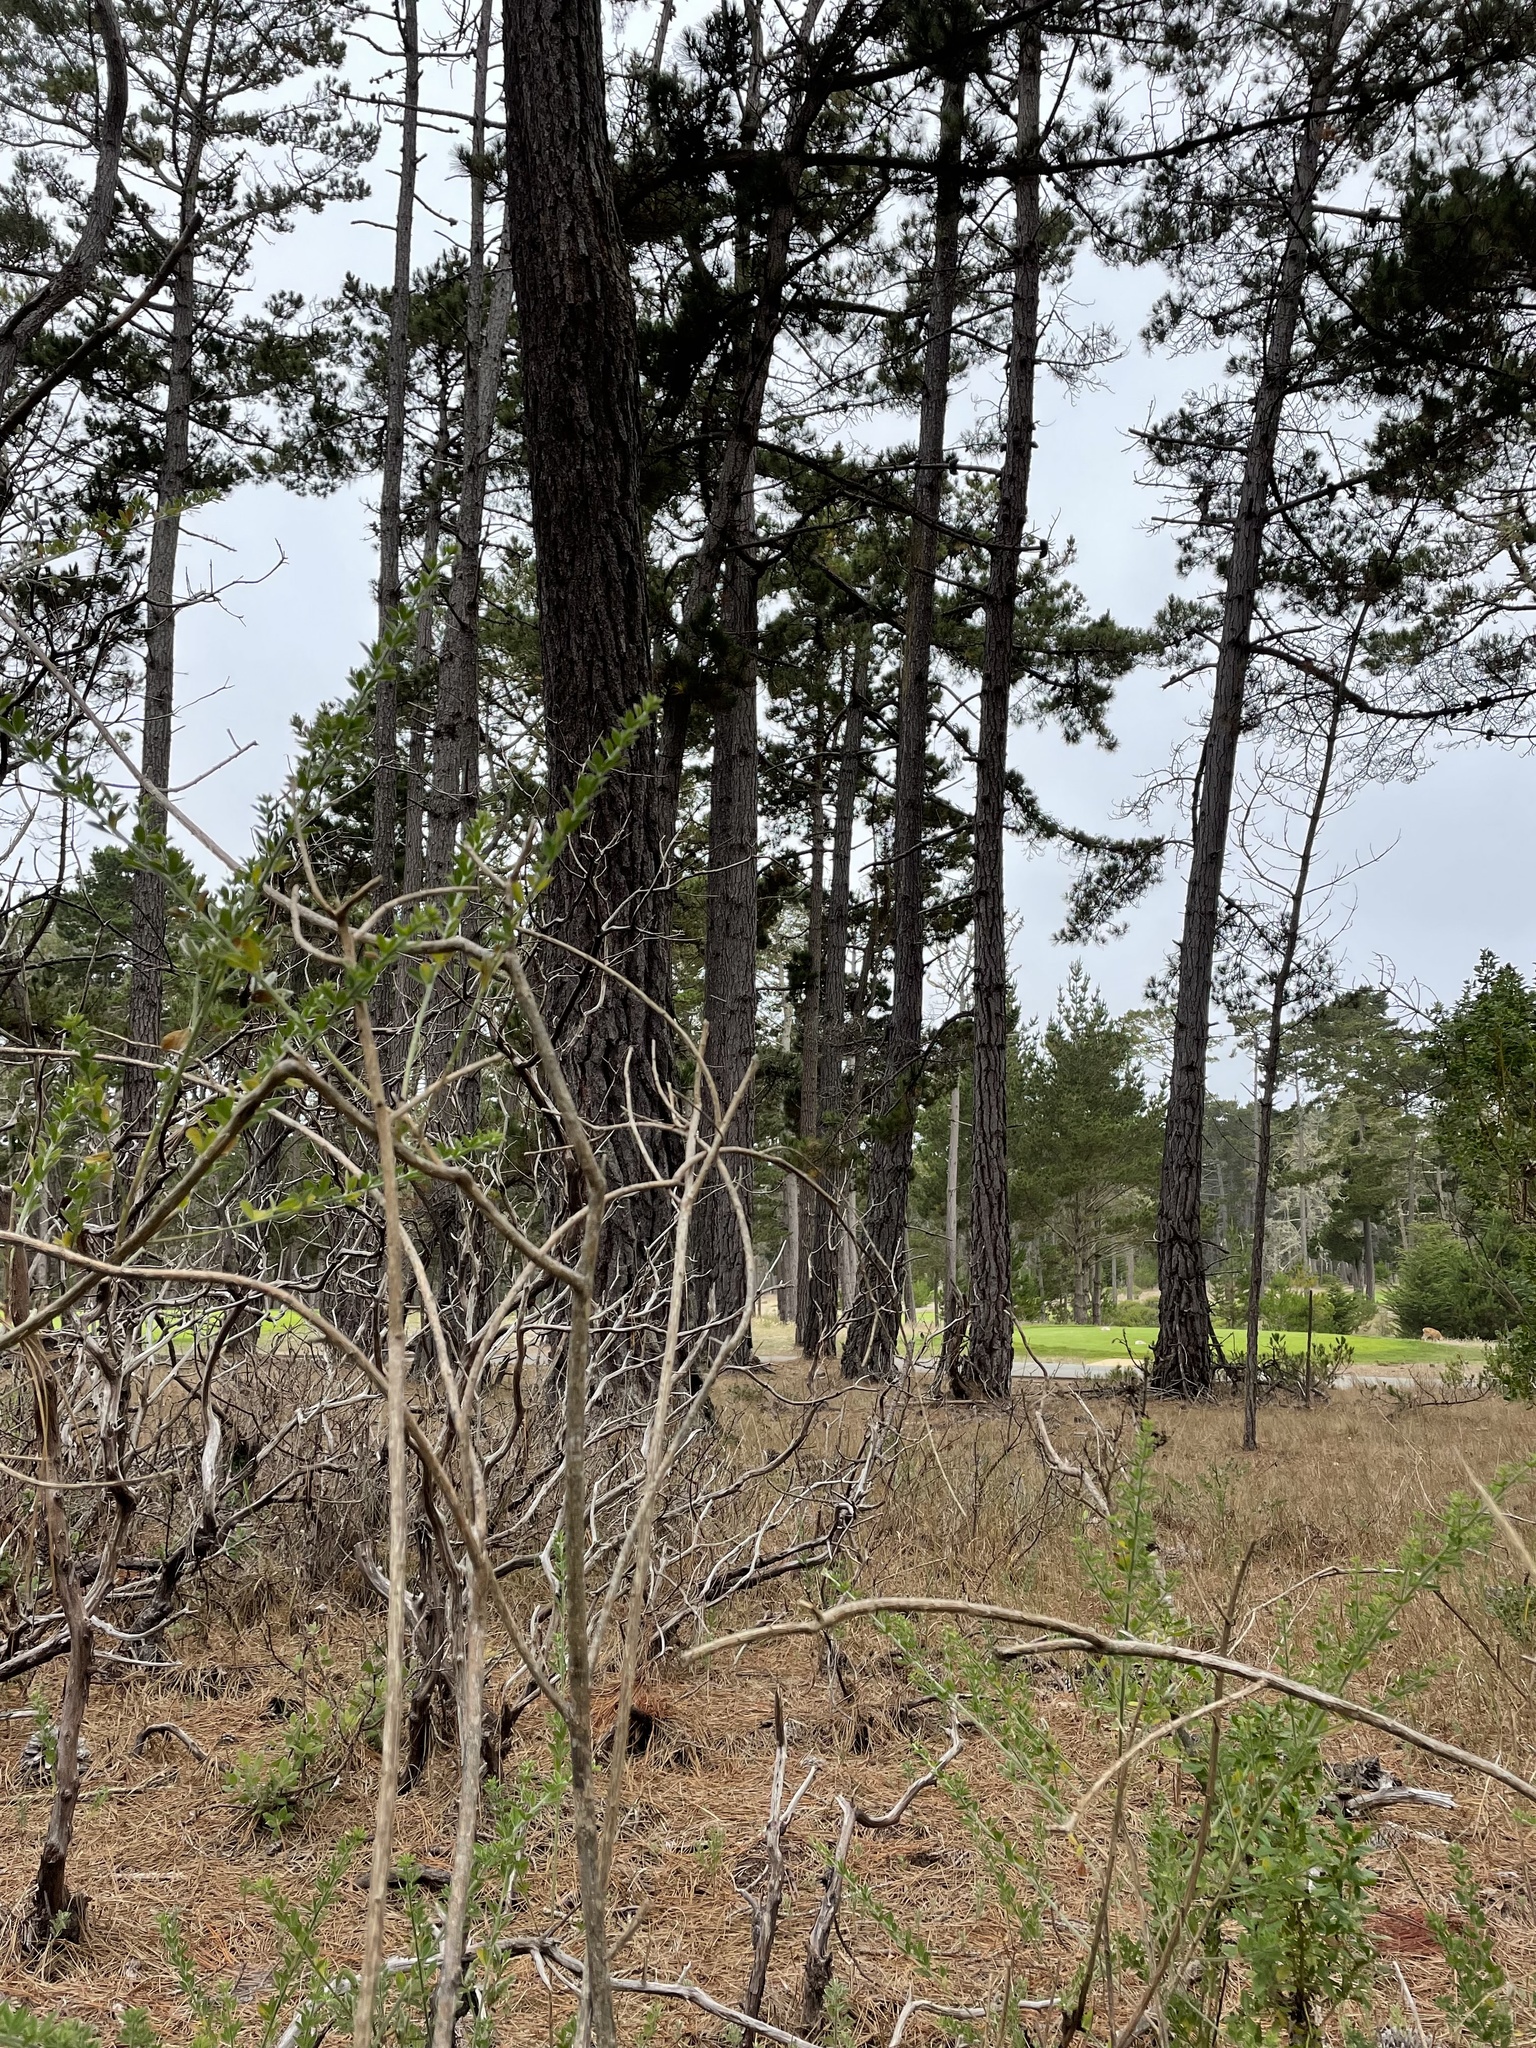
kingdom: Plantae
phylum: Tracheophyta
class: Liliopsida
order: Asparagales
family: Orchidaceae
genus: Platanthera
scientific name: Platanthera yadonii
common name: Yadon’s piperia
